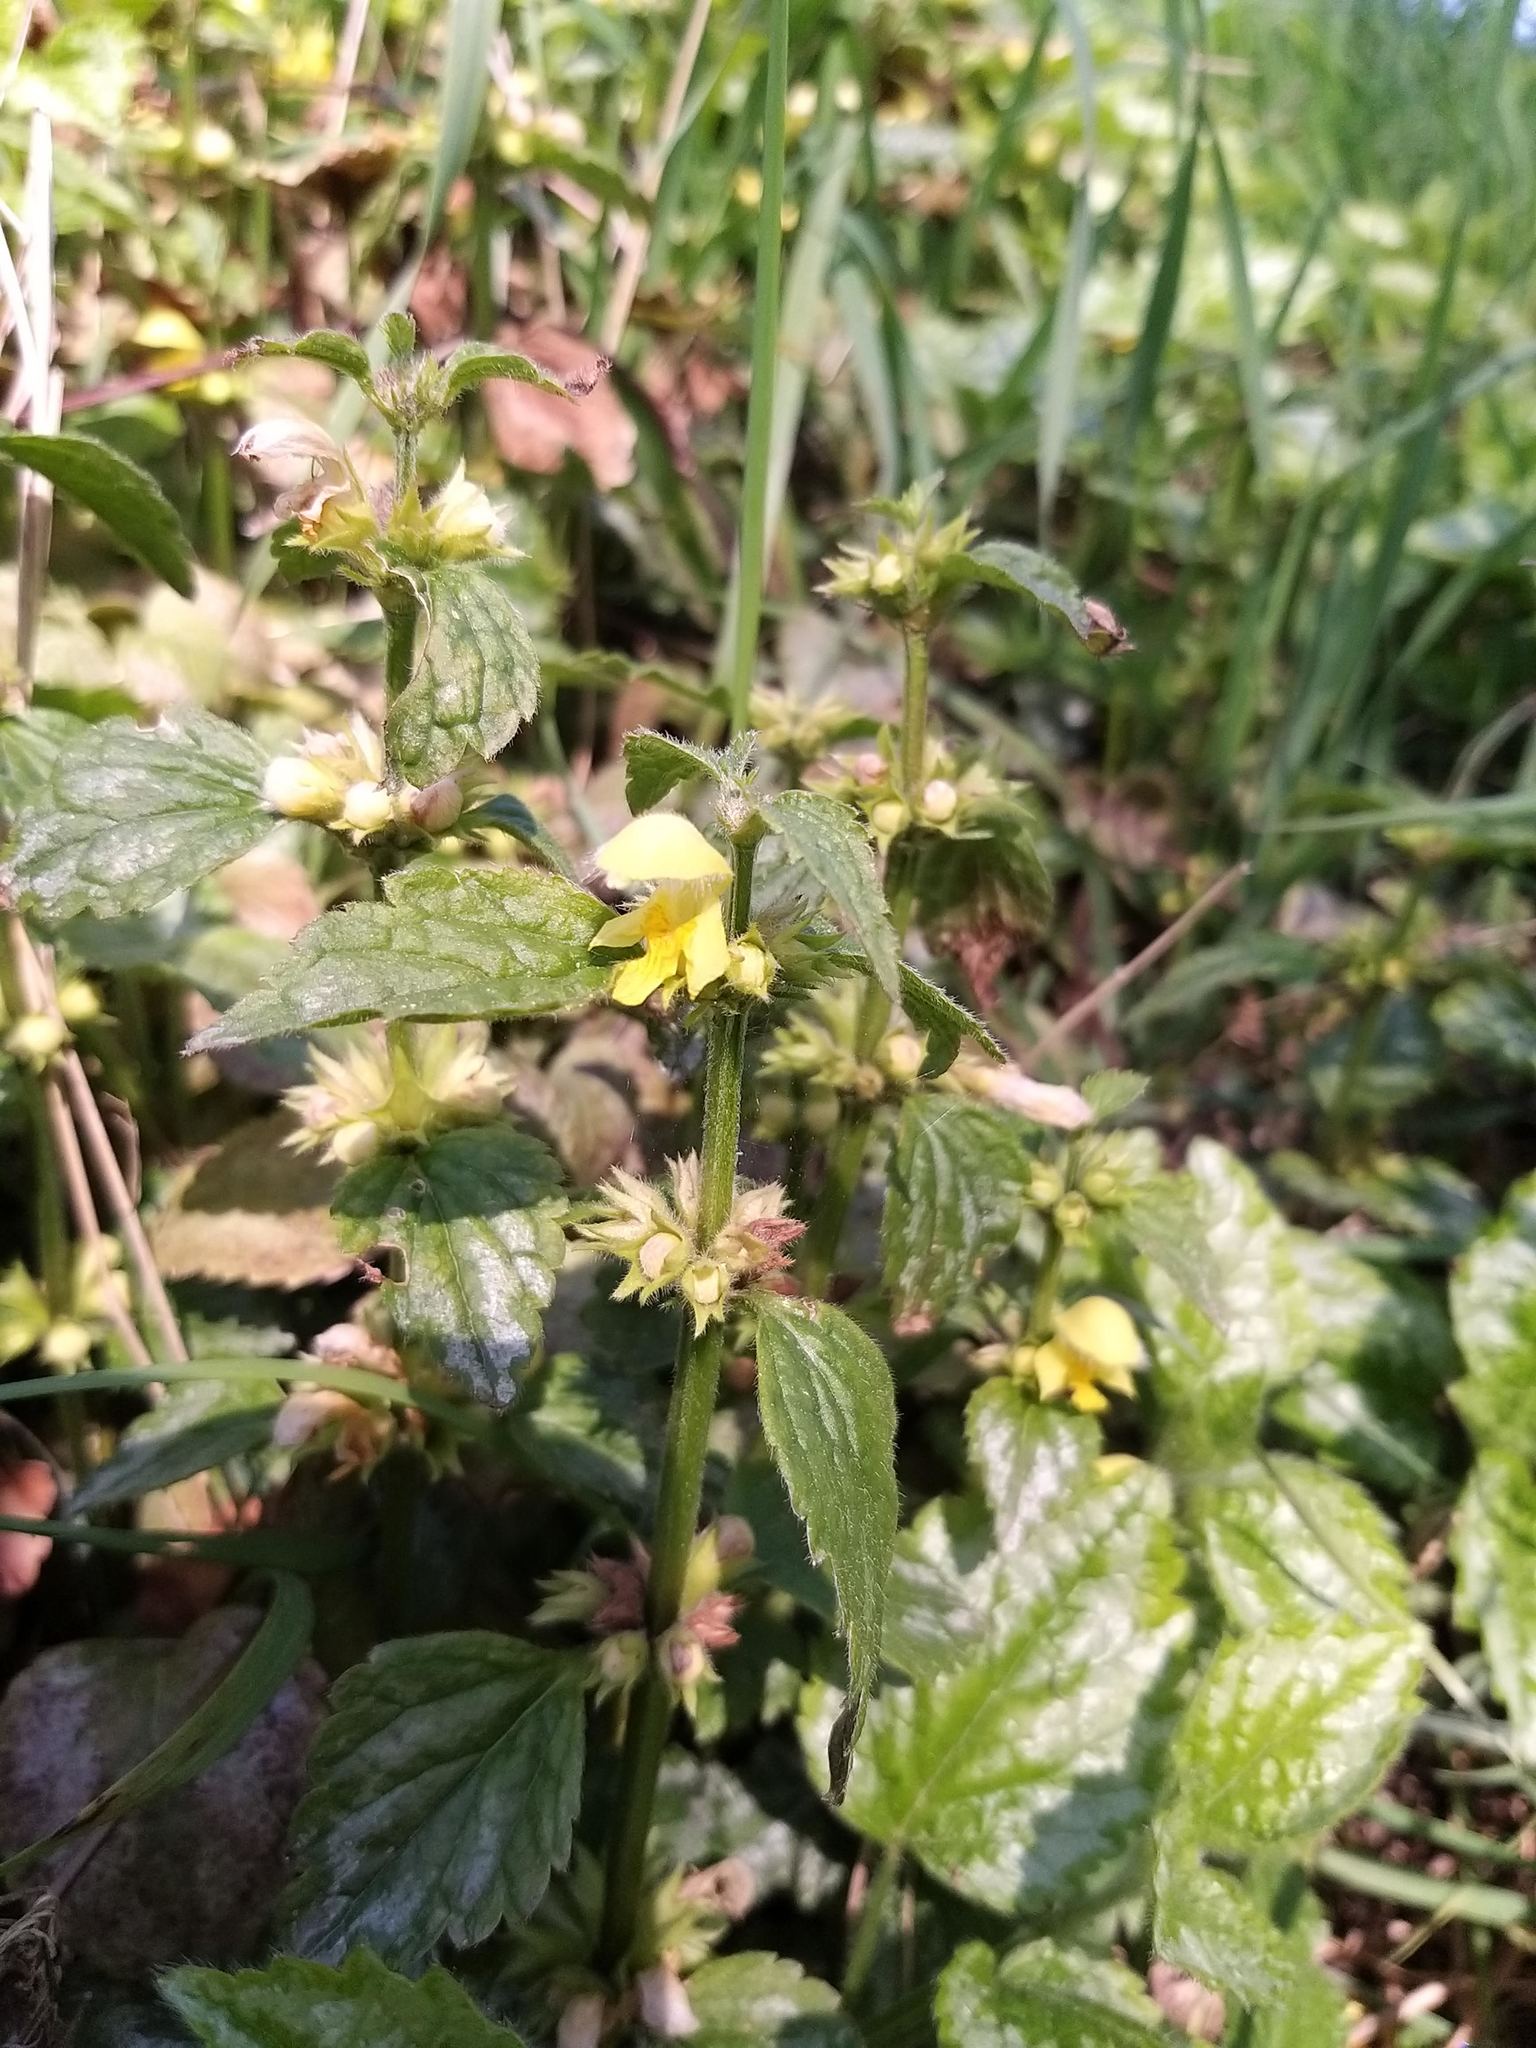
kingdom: Plantae
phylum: Tracheophyta
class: Magnoliopsida
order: Lamiales
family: Lamiaceae
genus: Lamium
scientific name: Lamium galeobdolon
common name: Yellow archangel
